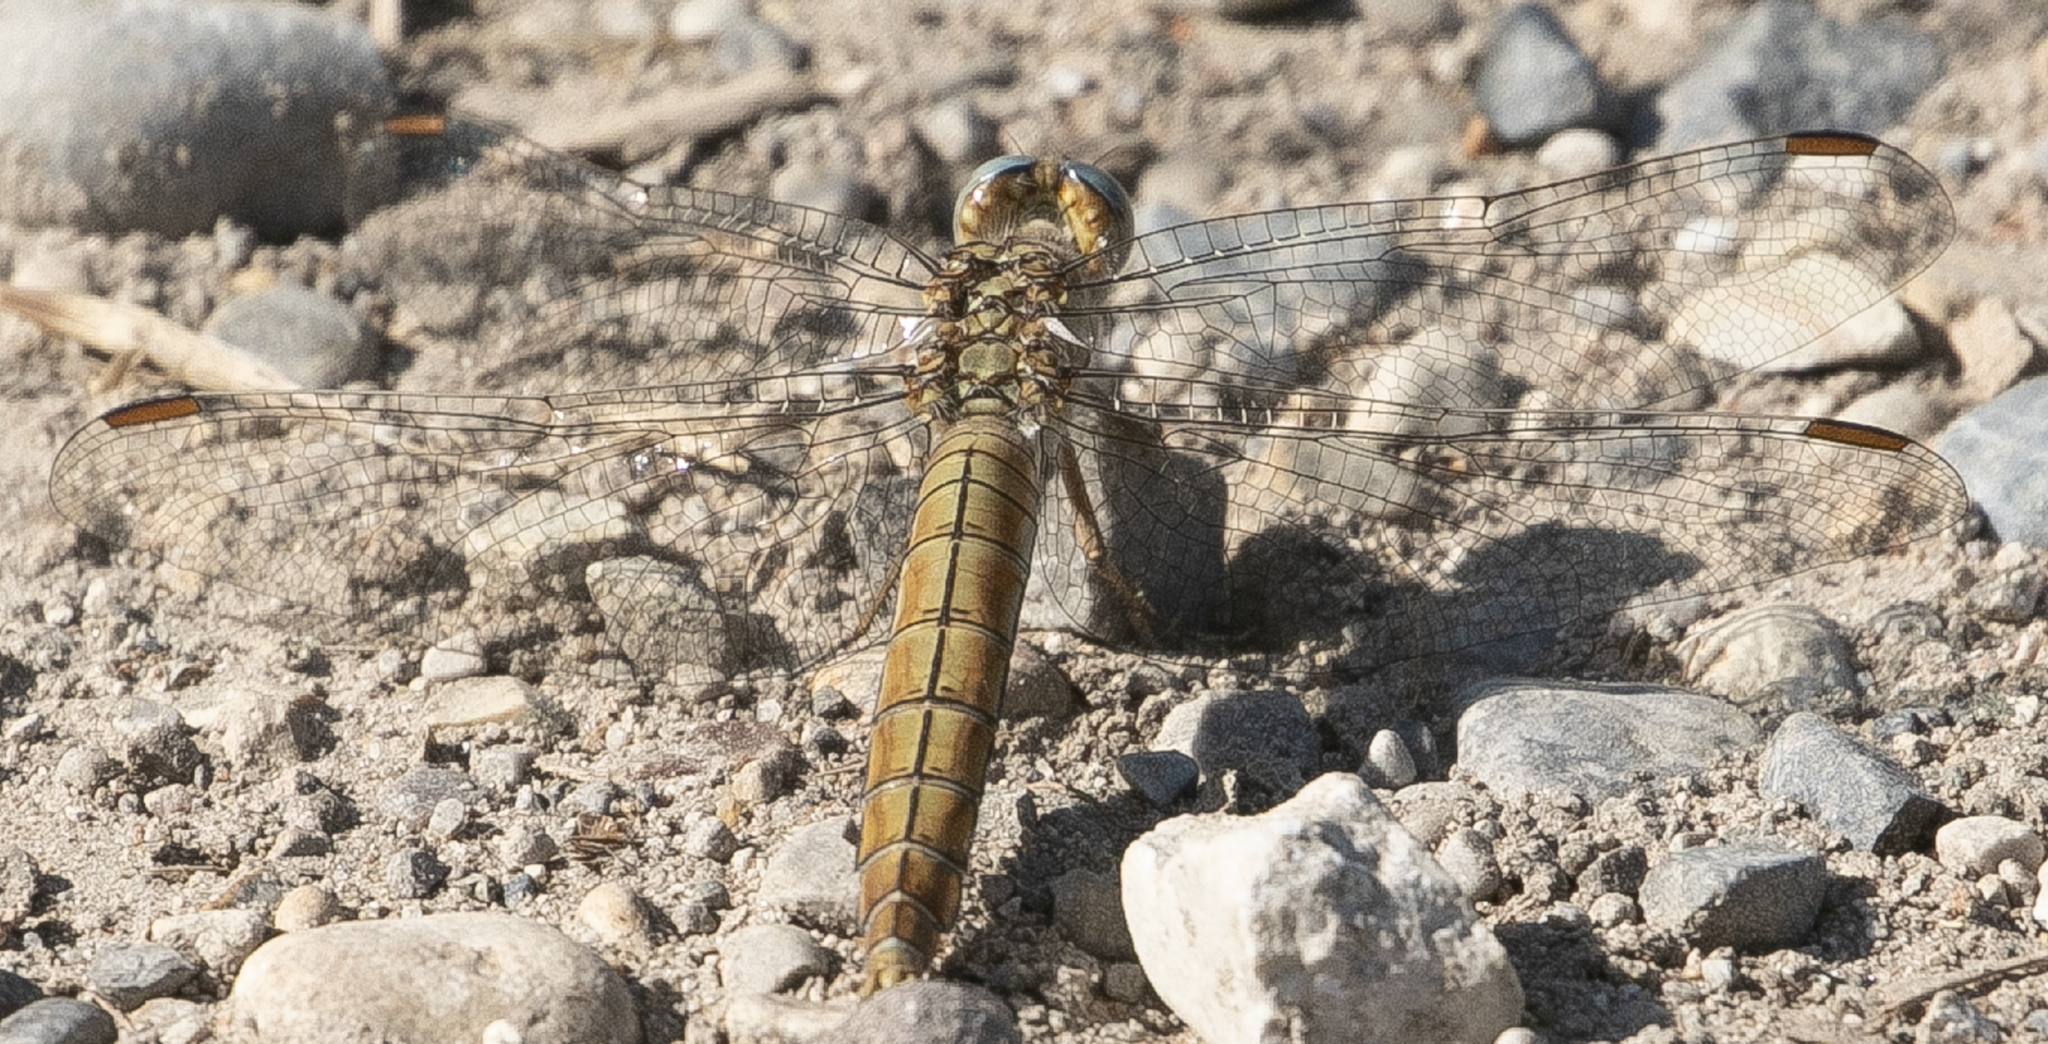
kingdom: Animalia
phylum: Arthropoda
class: Insecta
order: Odonata
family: Libellulidae
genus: Orthetrum
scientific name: Orthetrum brunneum
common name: Southern skimmer
